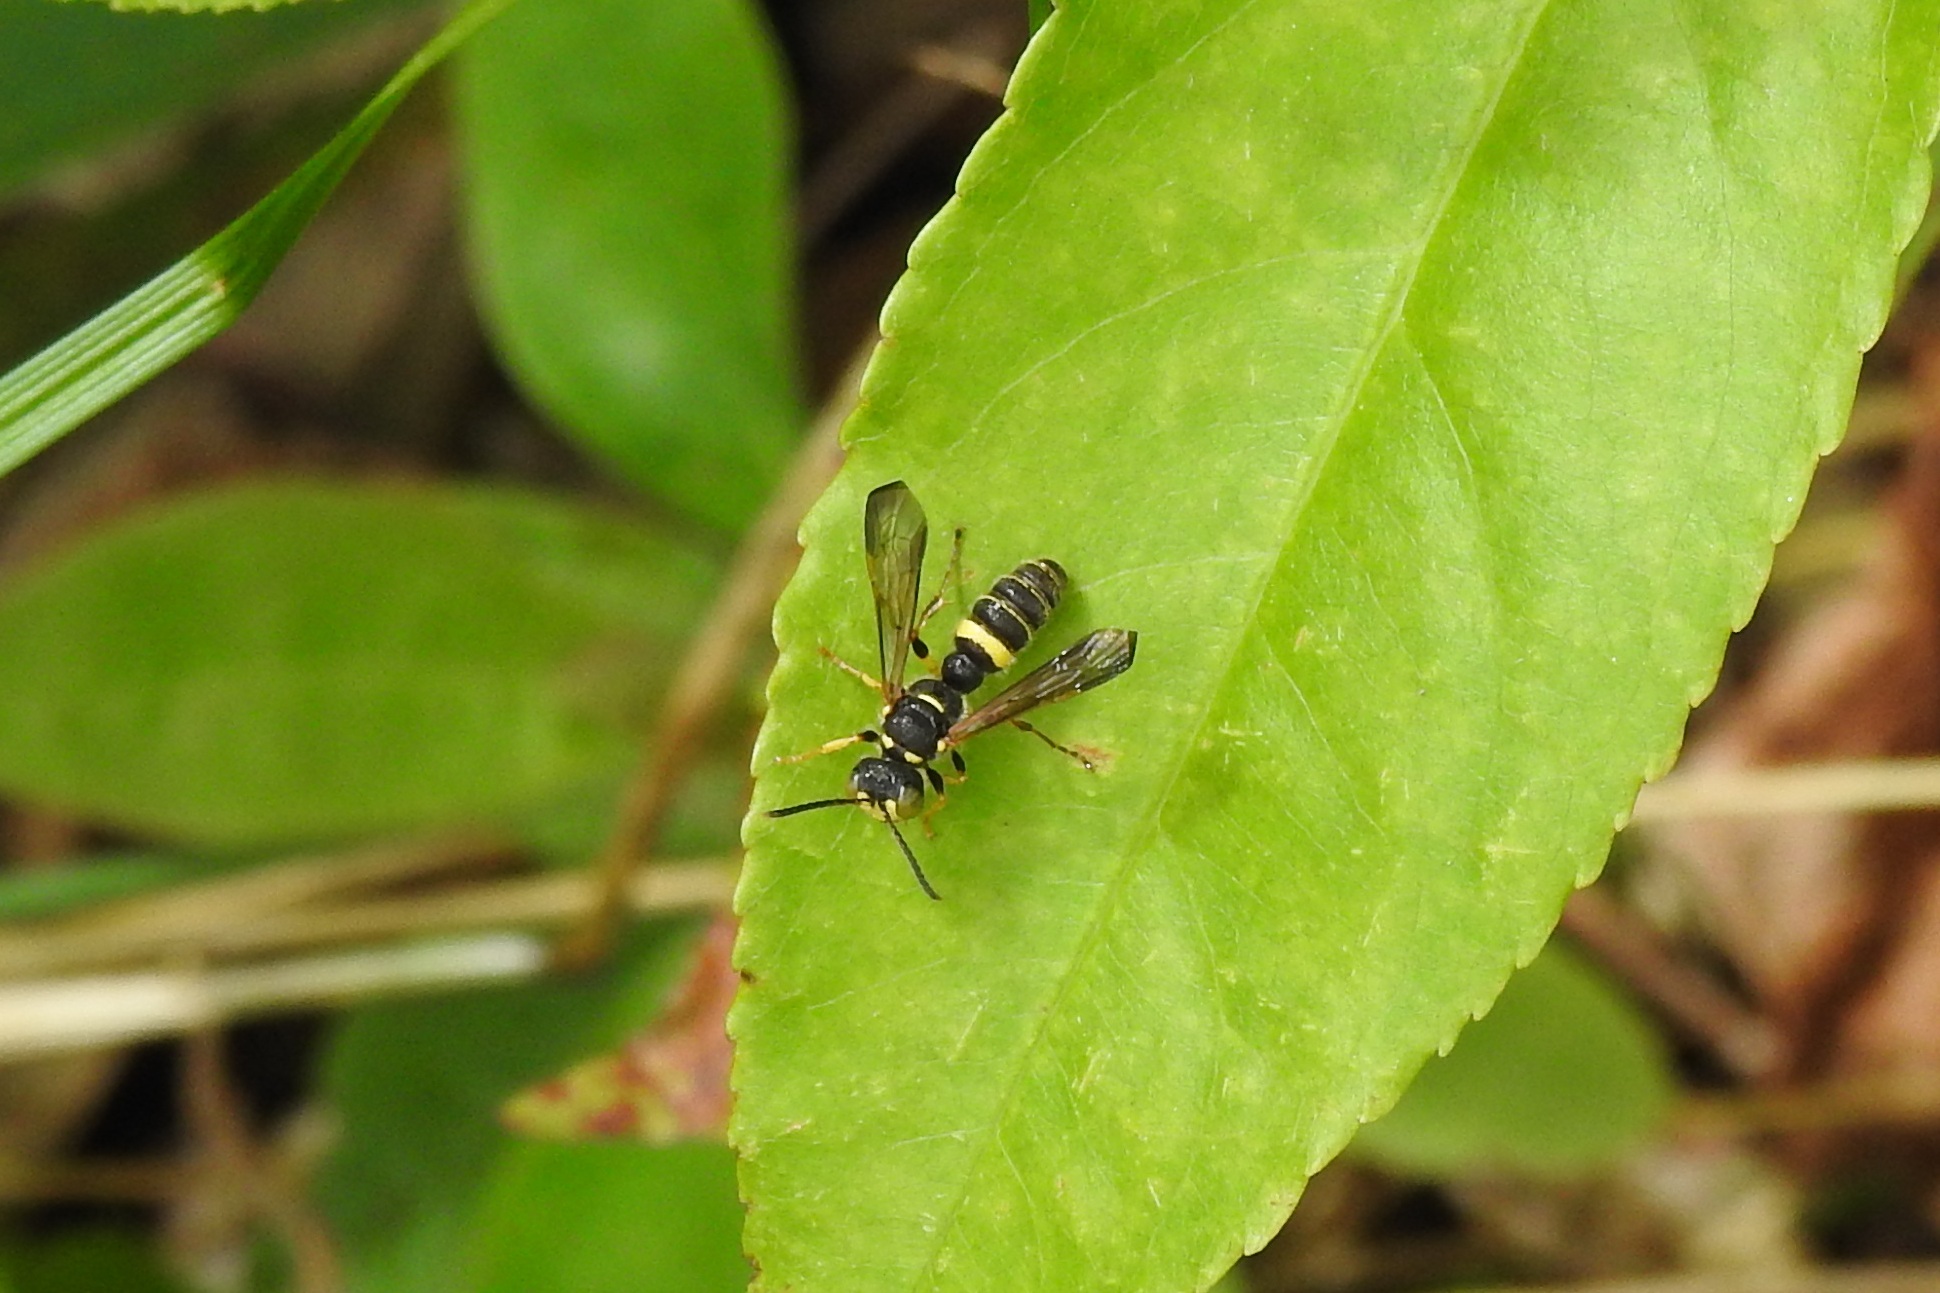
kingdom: Animalia
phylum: Arthropoda
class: Insecta
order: Hymenoptera
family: Crabronidae
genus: Cerceris
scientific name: Cerceris
